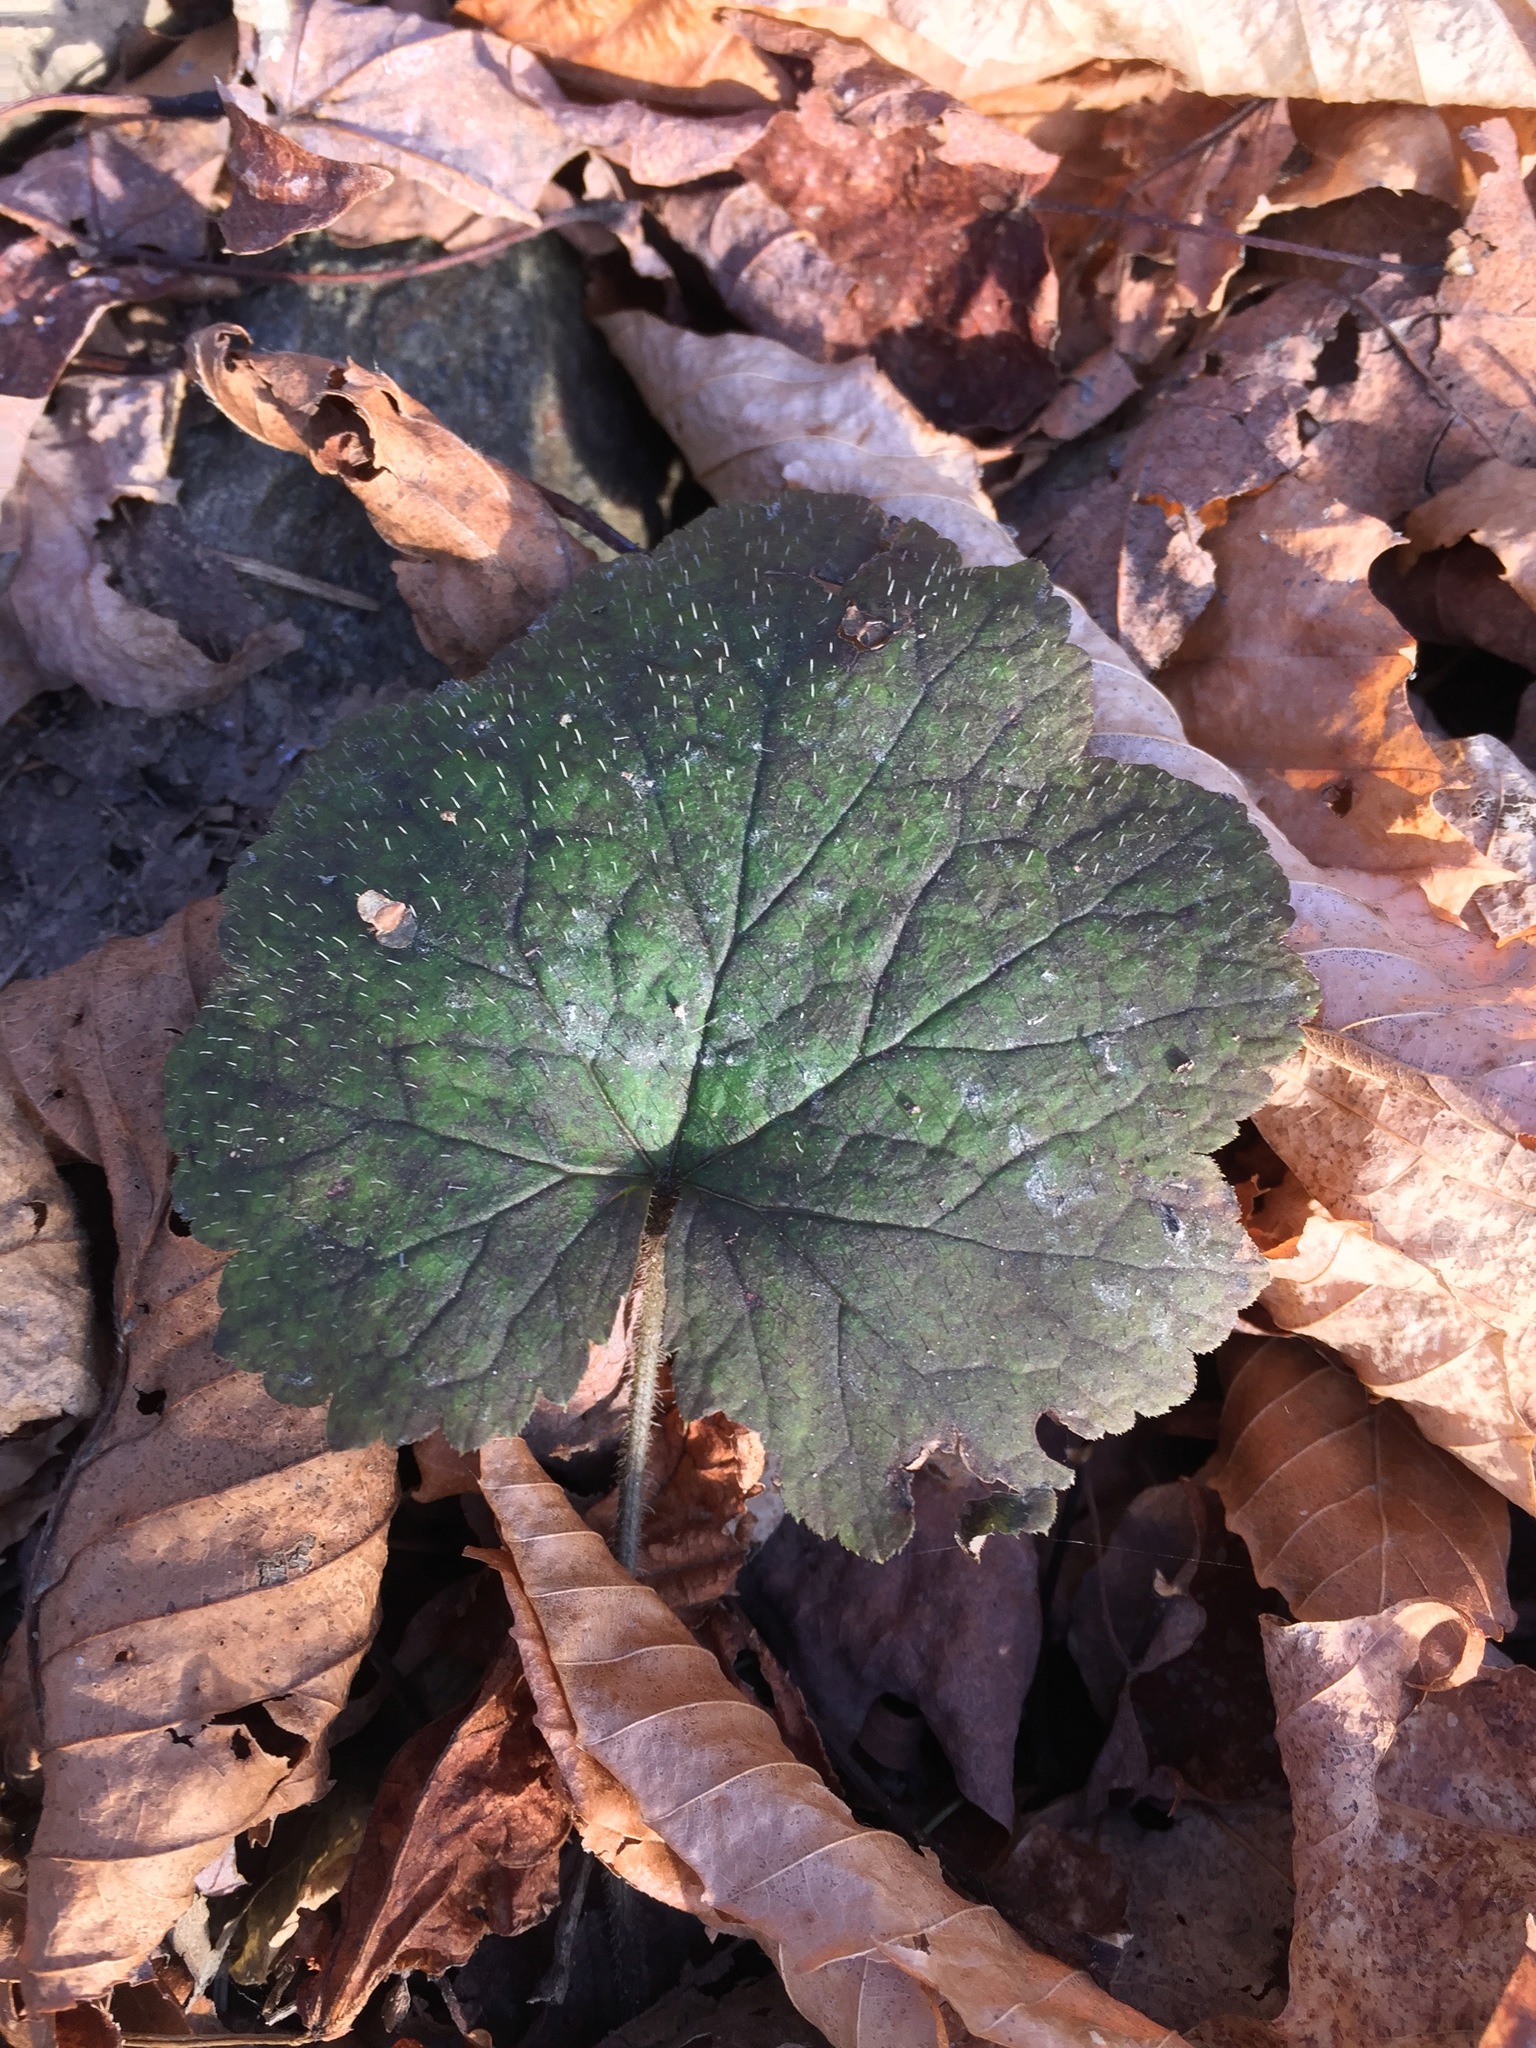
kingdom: Plantae
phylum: Tracheophyta
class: Magnoliopsida
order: Saxifragales
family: Saxifragaceae
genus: Tiarella
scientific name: Tiarella stolonifera
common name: Stoloniferous foamflower
